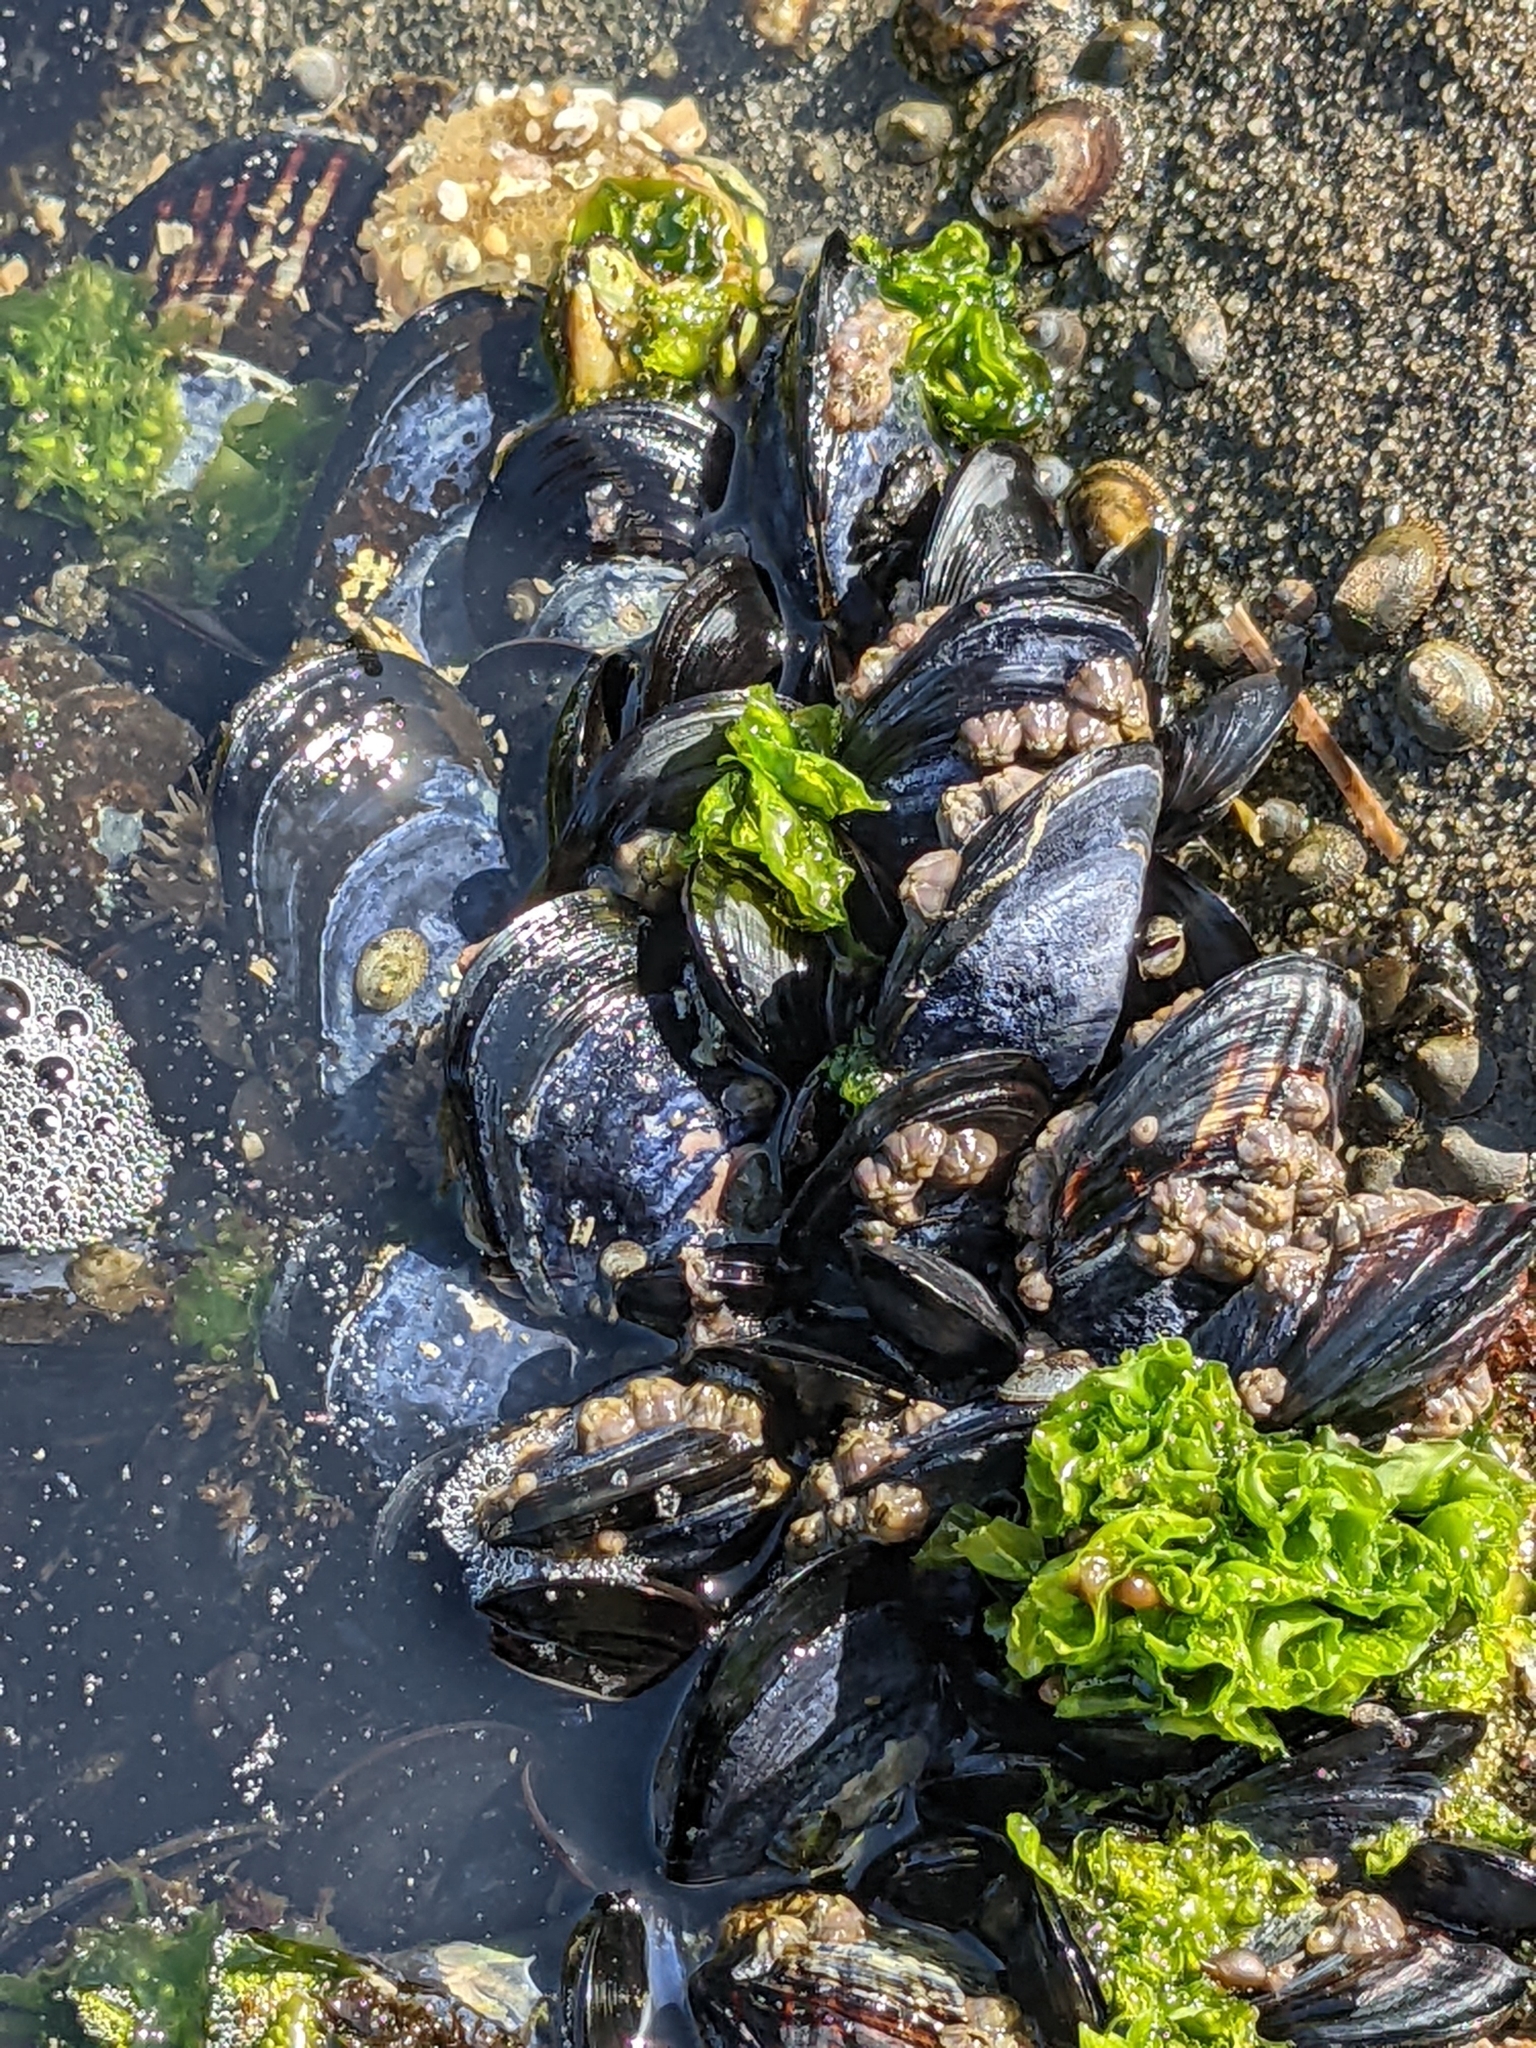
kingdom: Animalia
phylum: Mollusca
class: Bivalvia
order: Mytilida
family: Mytilidae
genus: Mytilus
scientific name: Mytilus galloprovincialis
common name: Mediterranean mussel
